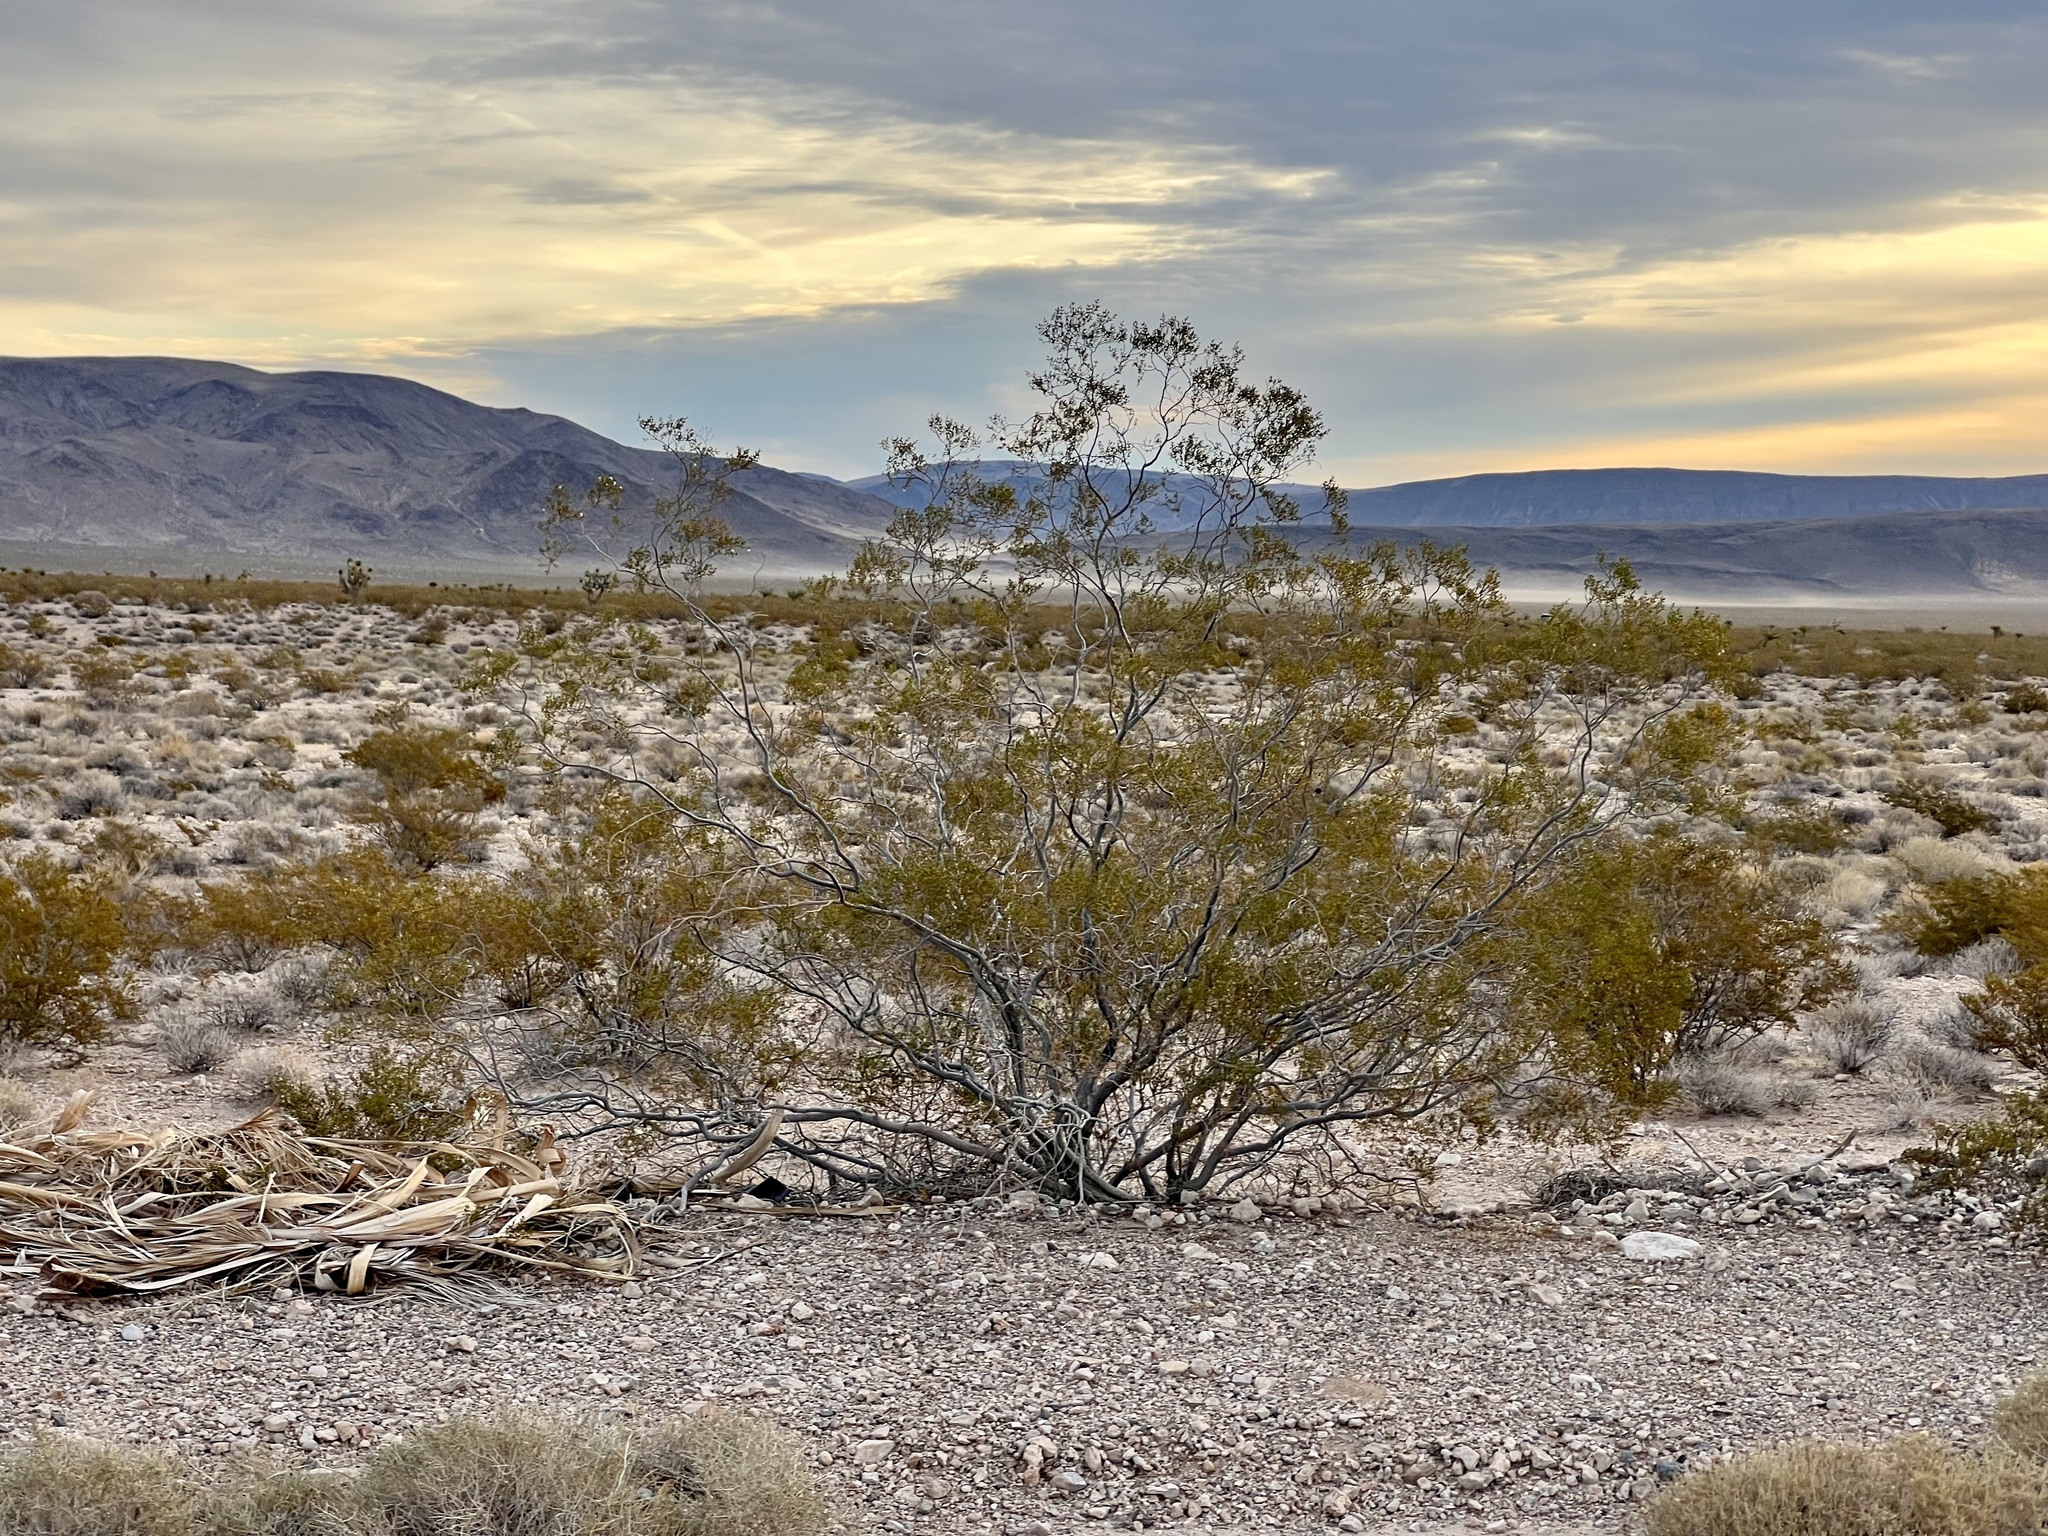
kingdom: Plantae
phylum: Tracheophyta
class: Magnoliopsida
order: Zygophyllales
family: Zygophyllaceae
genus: Larrea
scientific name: Larrea tridentata
